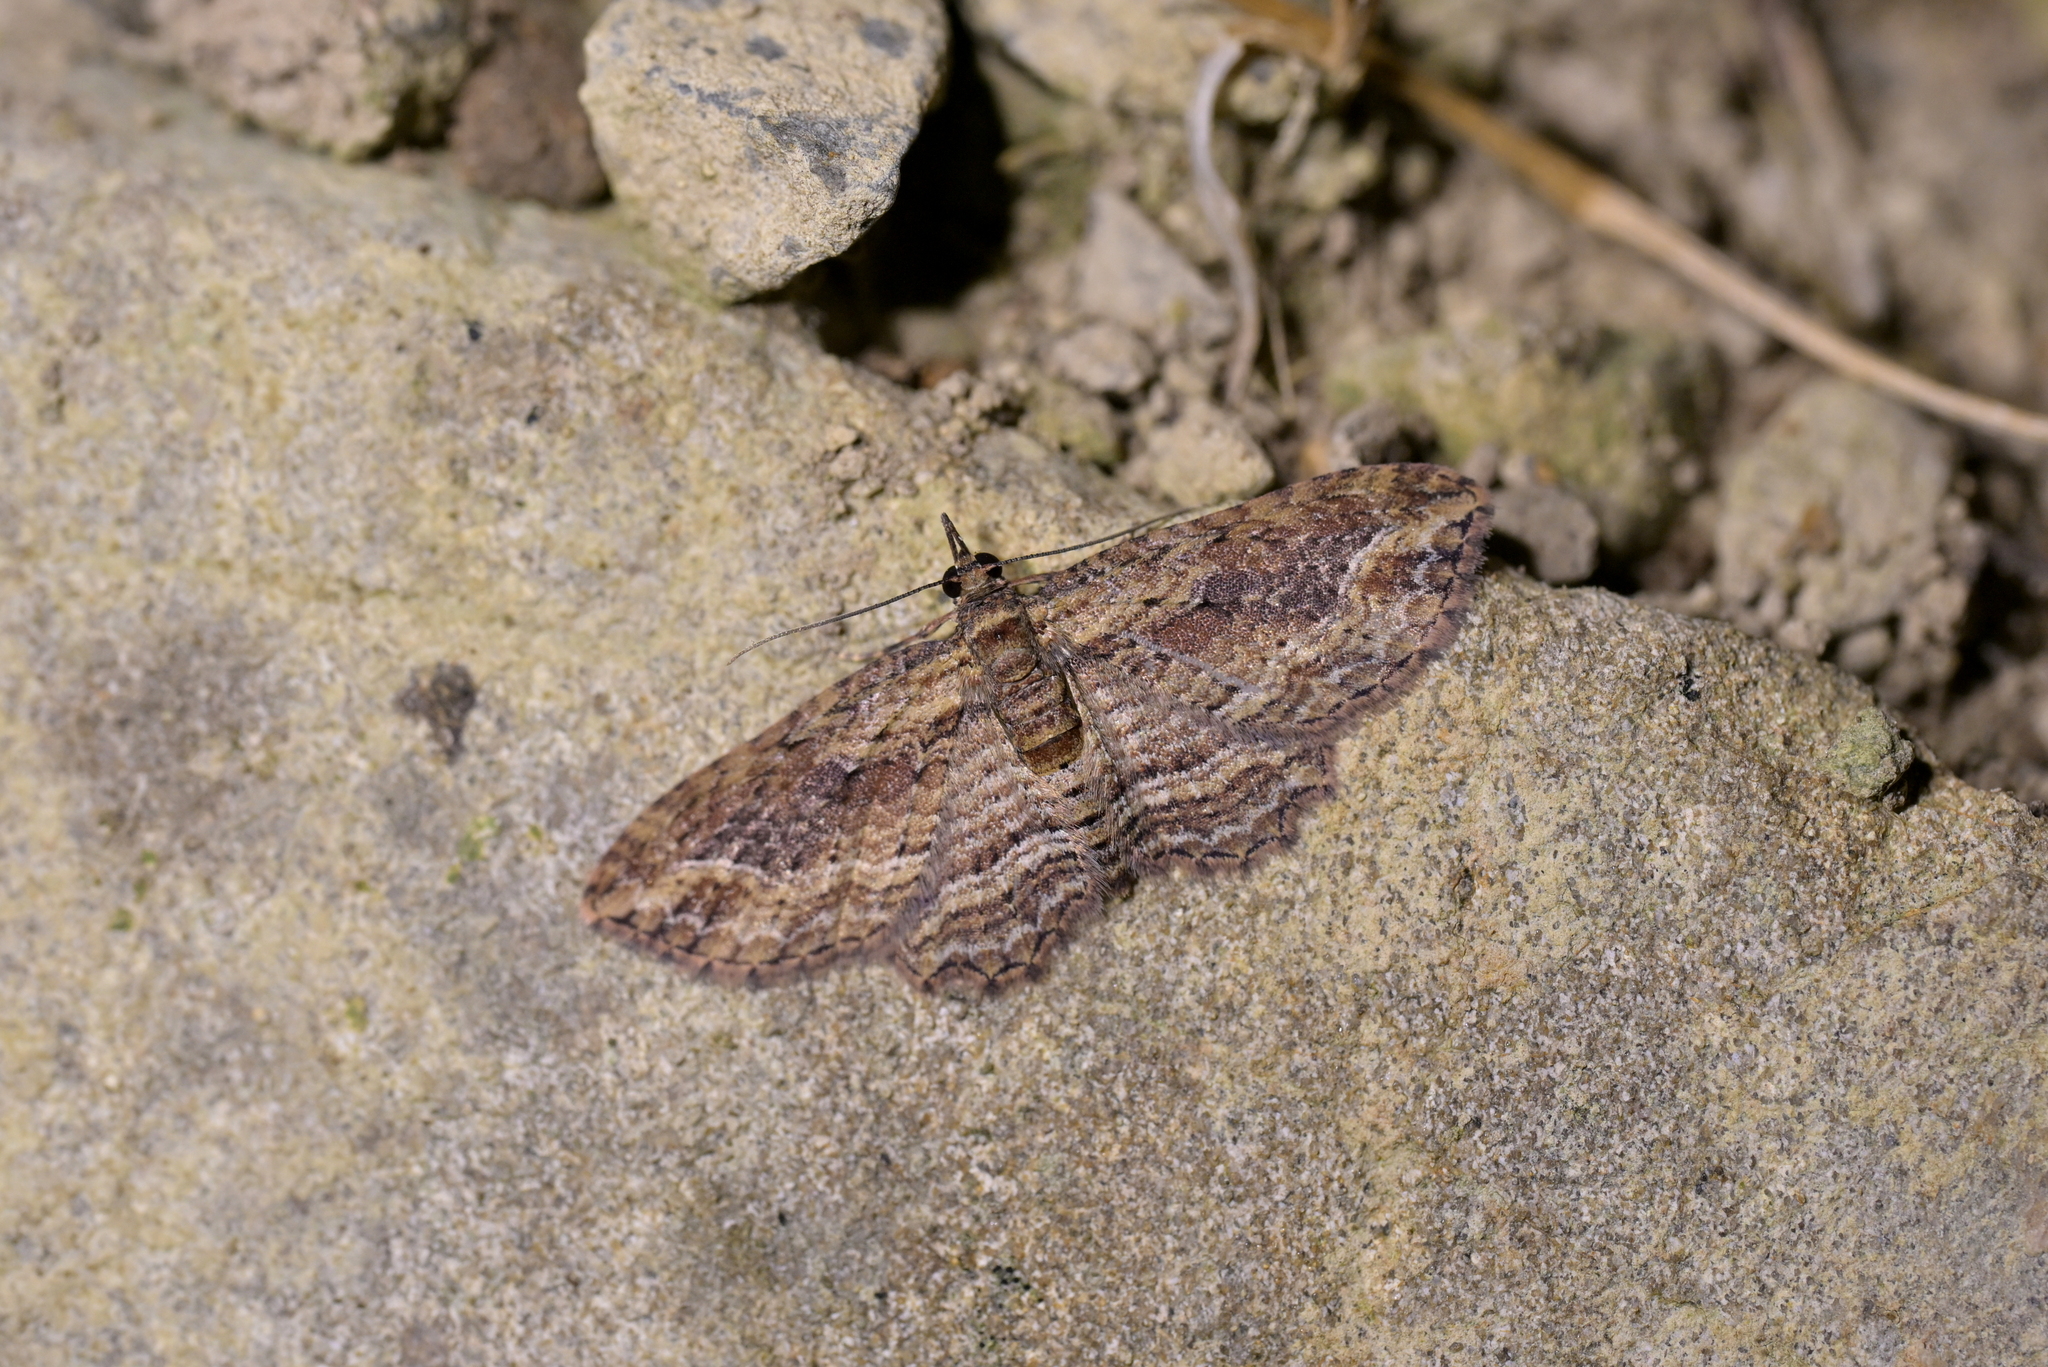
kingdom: Animalia
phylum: Arthropoda
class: Insecta
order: Lepidoptera
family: Geometridae
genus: Chloroclystis
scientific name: Chloroclystis filata
